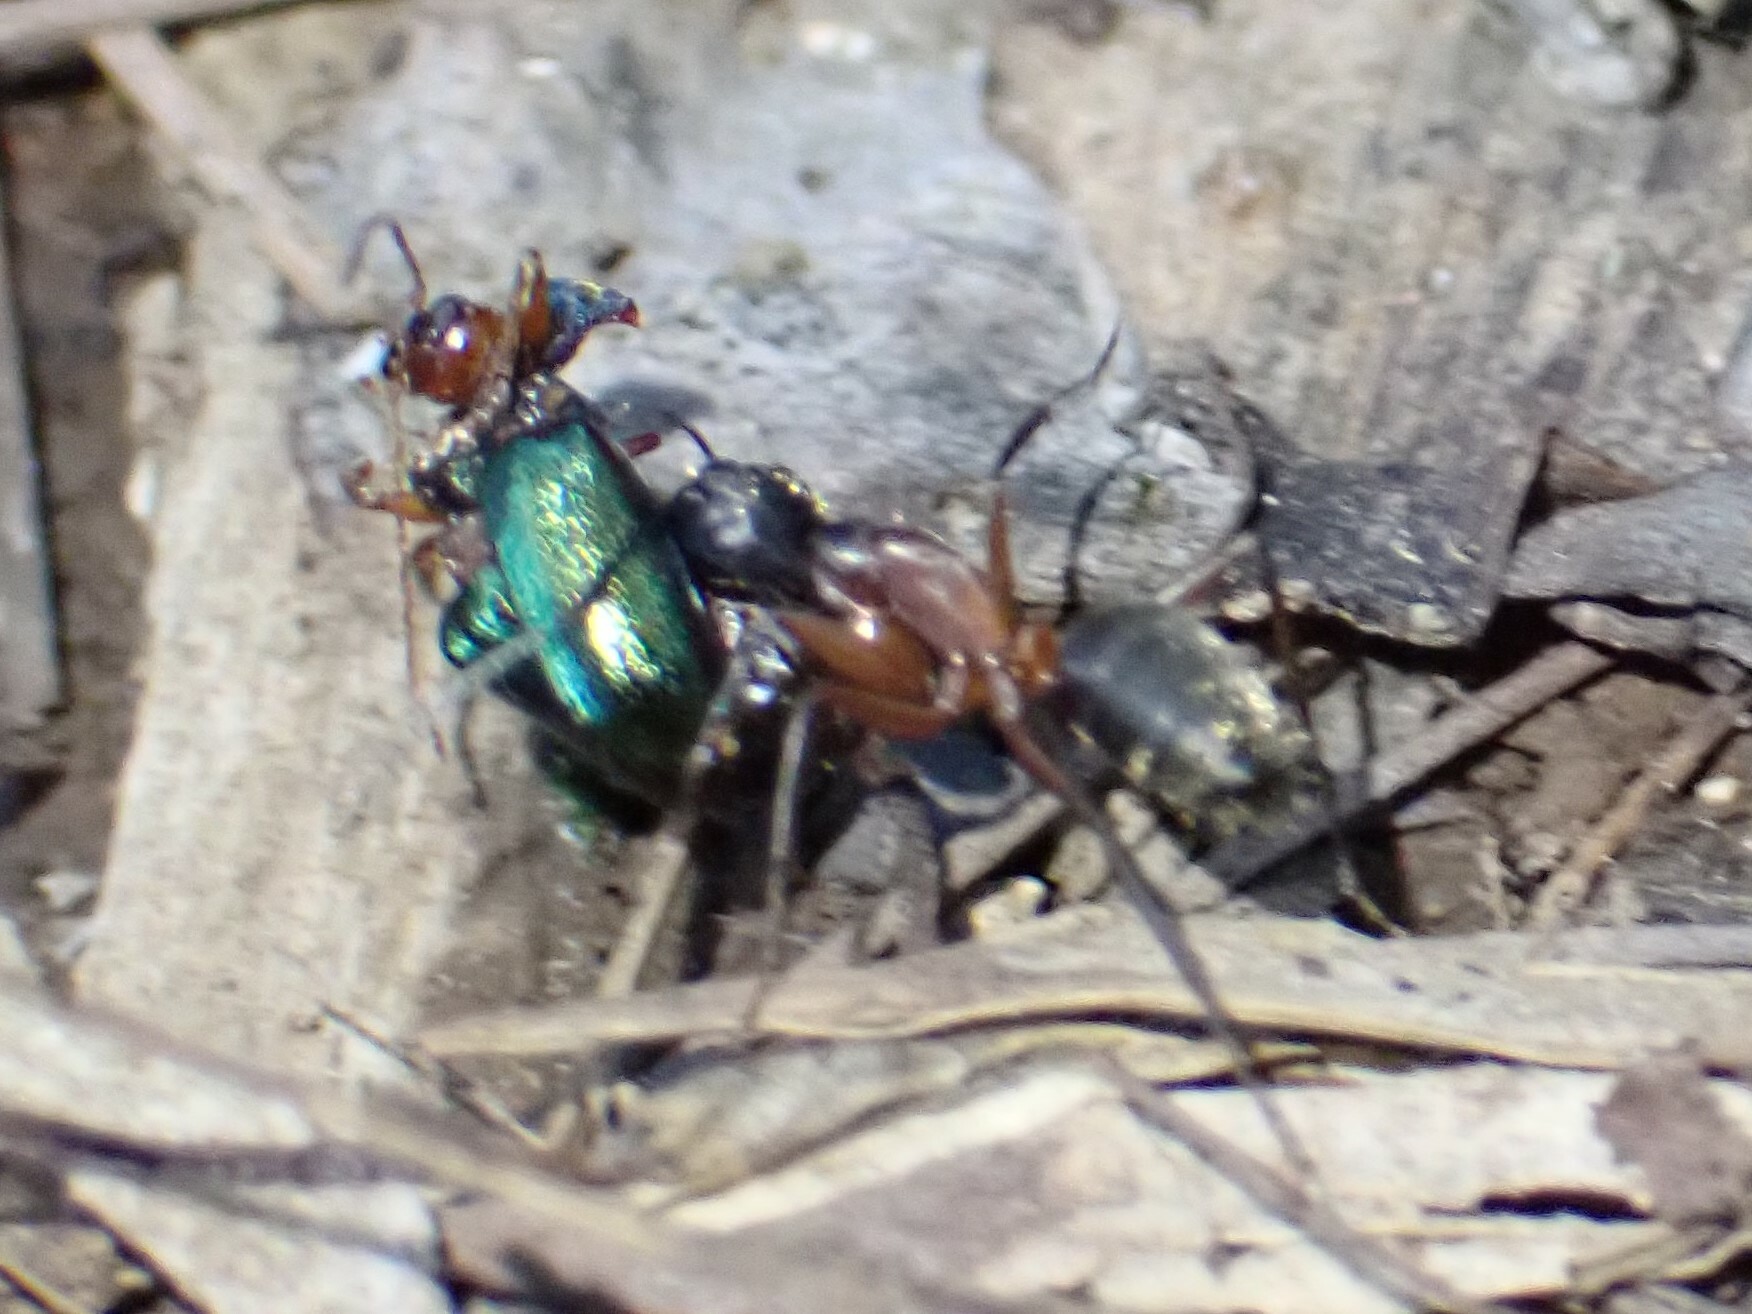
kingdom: Animalia
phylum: Arthropoda
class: Insecta
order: Hymenoptera
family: Formicidae
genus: Camponotus
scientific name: Camponotus chromaiodes
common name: Red carpenter ant
